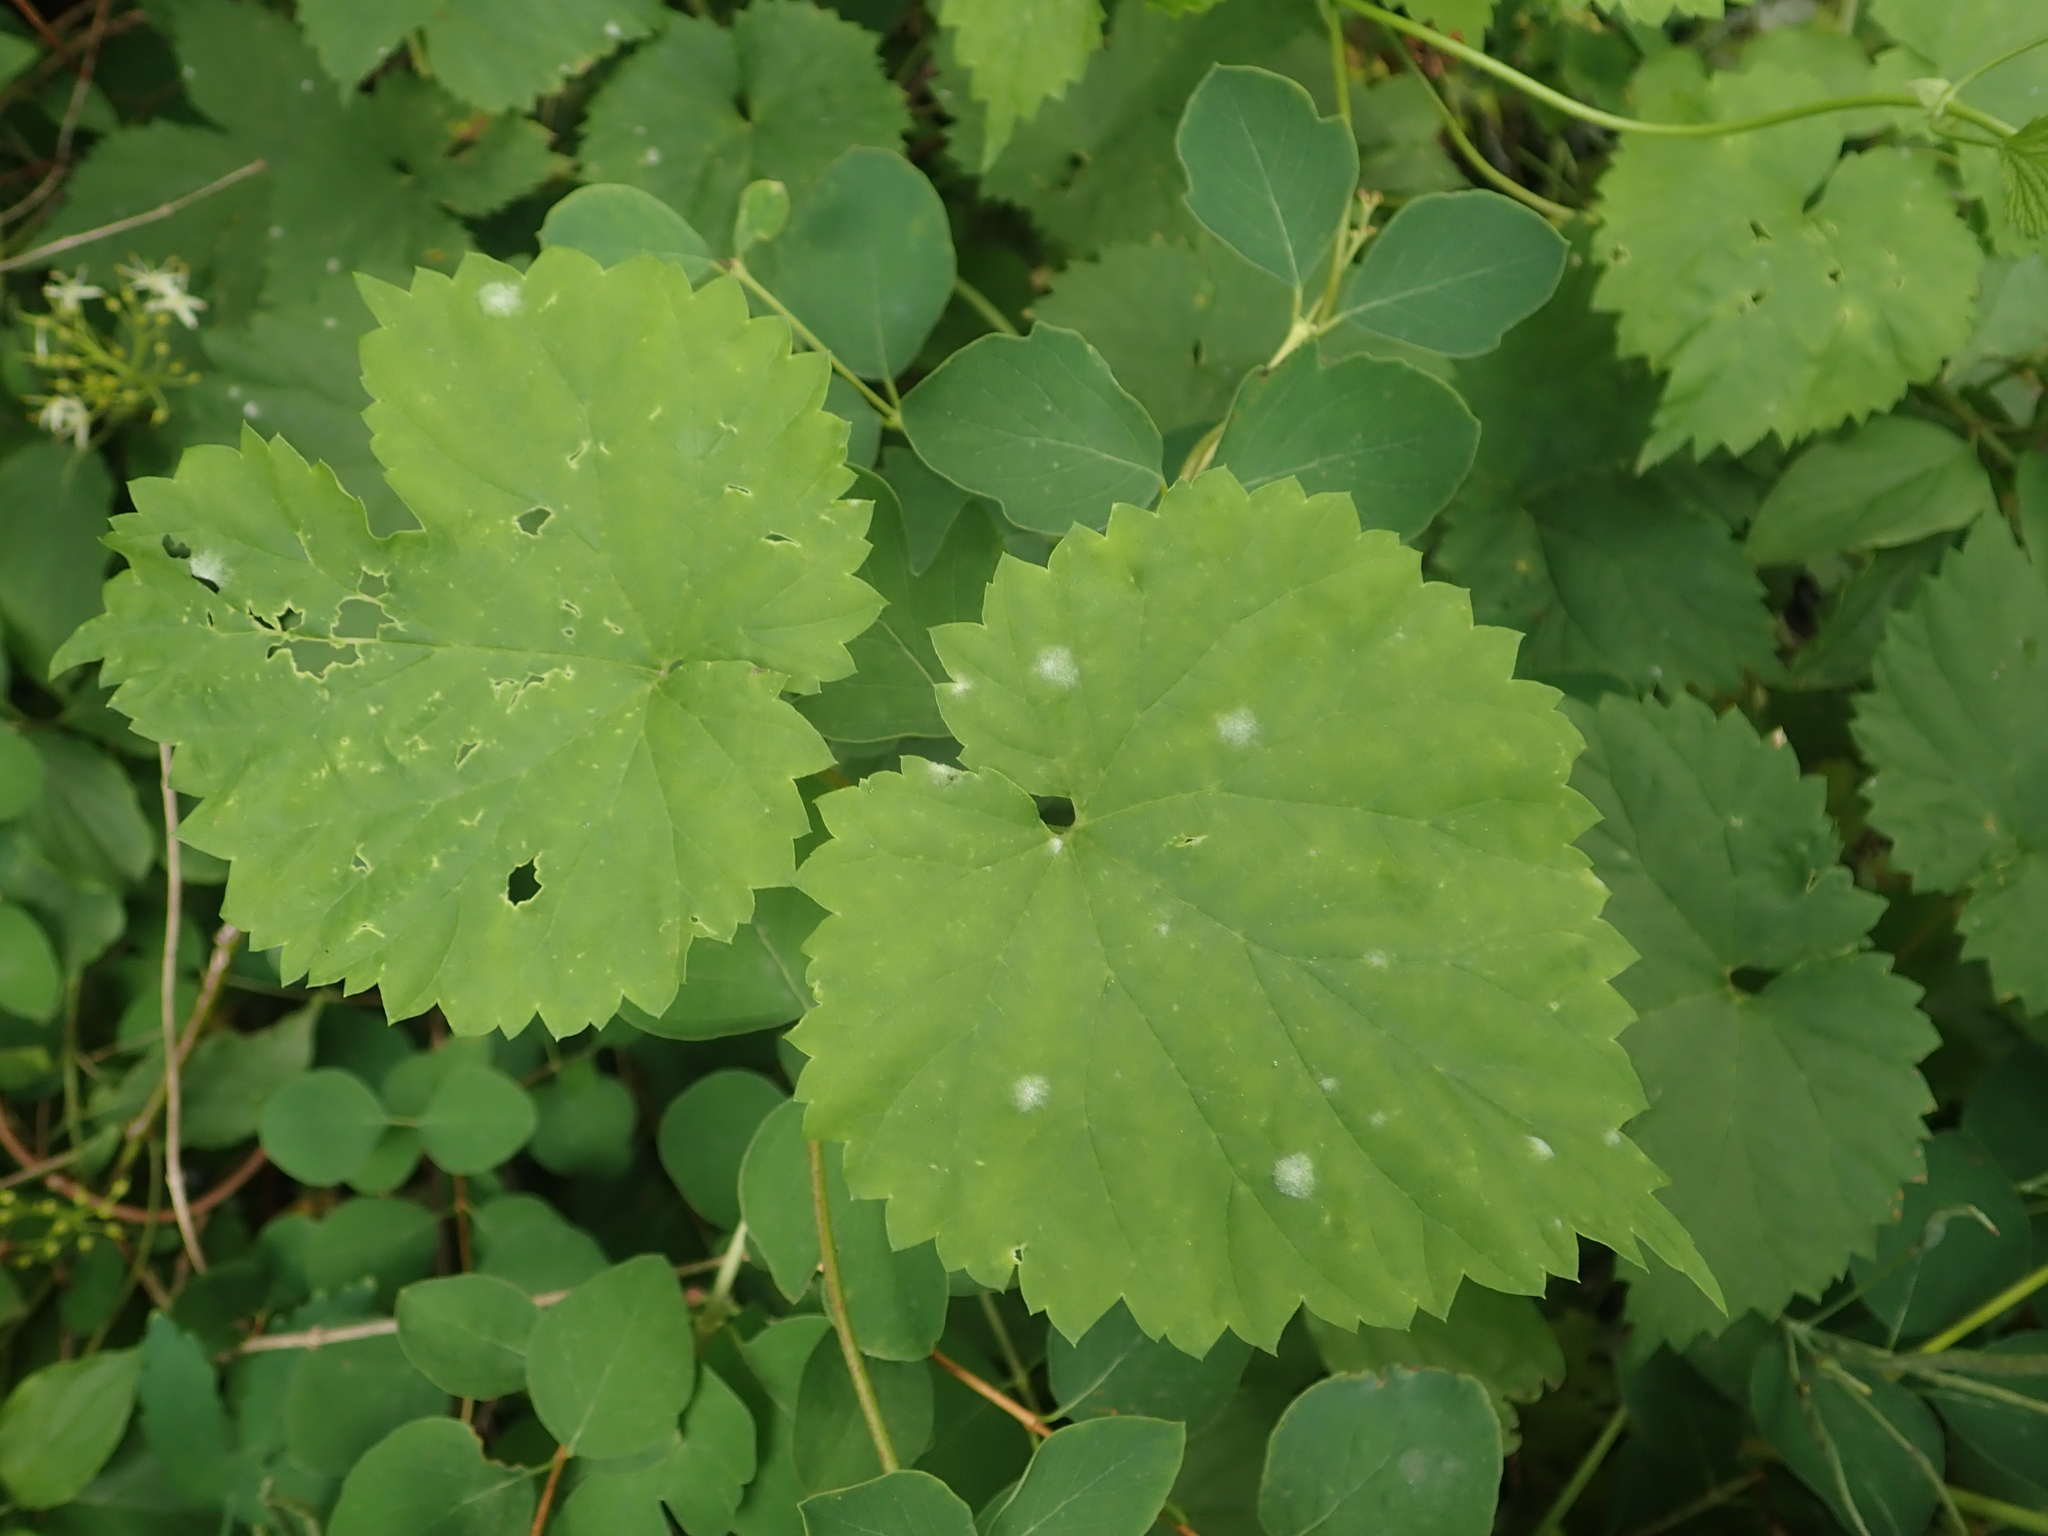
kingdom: Plantae
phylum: Tracheophyta
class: Magnoliopsida
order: Rosales
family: Cannabaceae
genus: Humulus
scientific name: Humulus lupulus
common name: Hop
